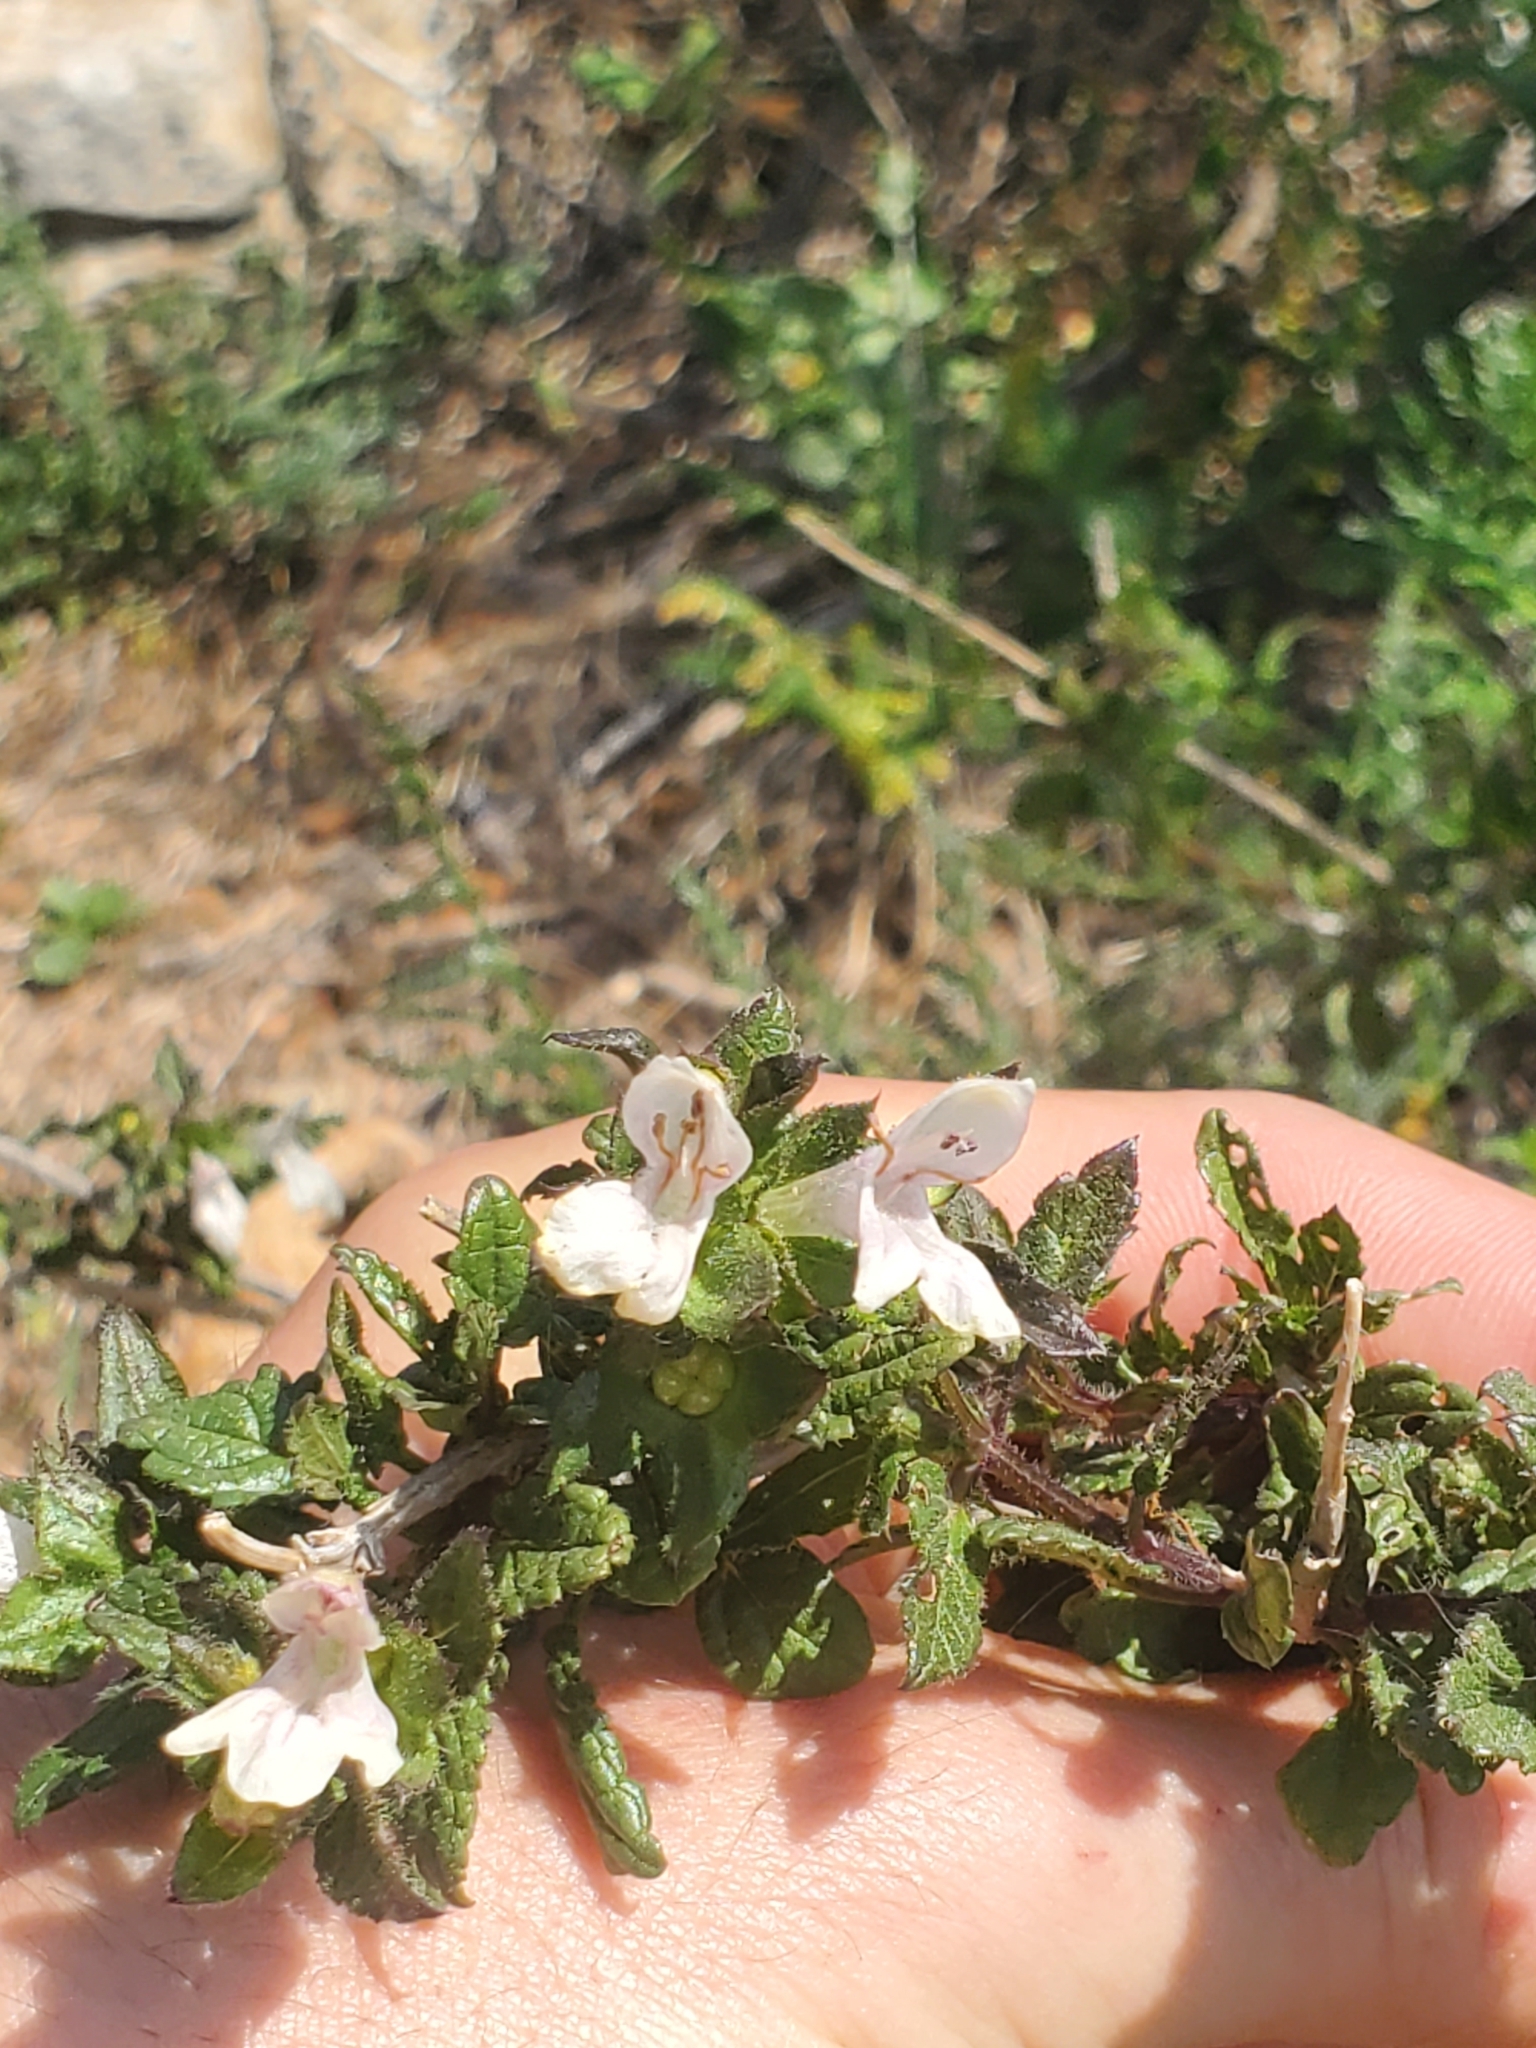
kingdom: Plantae
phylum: Tracheophyta
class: Magnoliopsida
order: Lamiales
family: Lamiaceae
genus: Prasium
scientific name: Prasium majus
